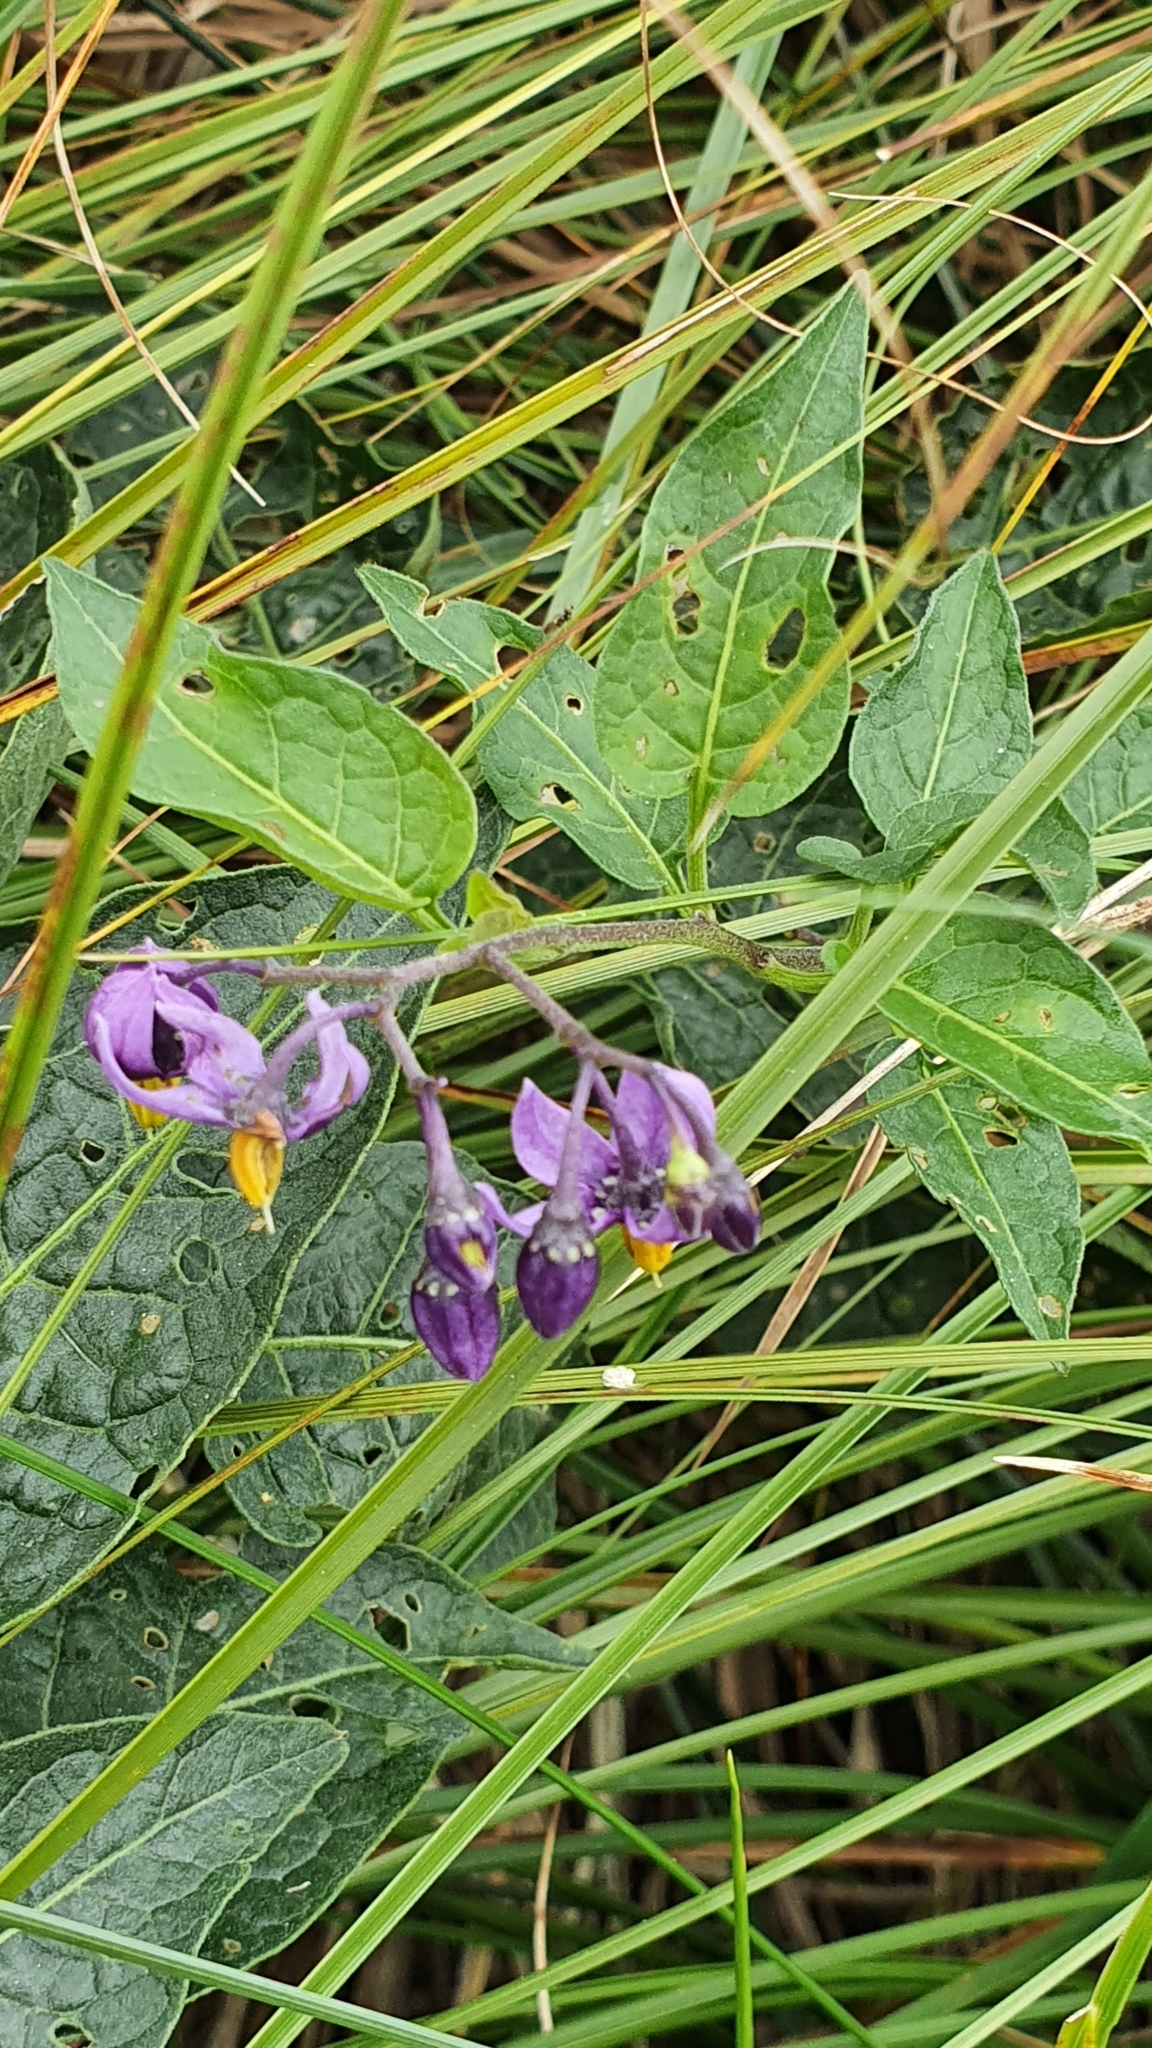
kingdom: Plantae
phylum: Tracheophyta
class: Magnoliopsida
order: Solanales
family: Solanaceae
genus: Solanum
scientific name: Solanum dulcamara
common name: Climbing nightshade
